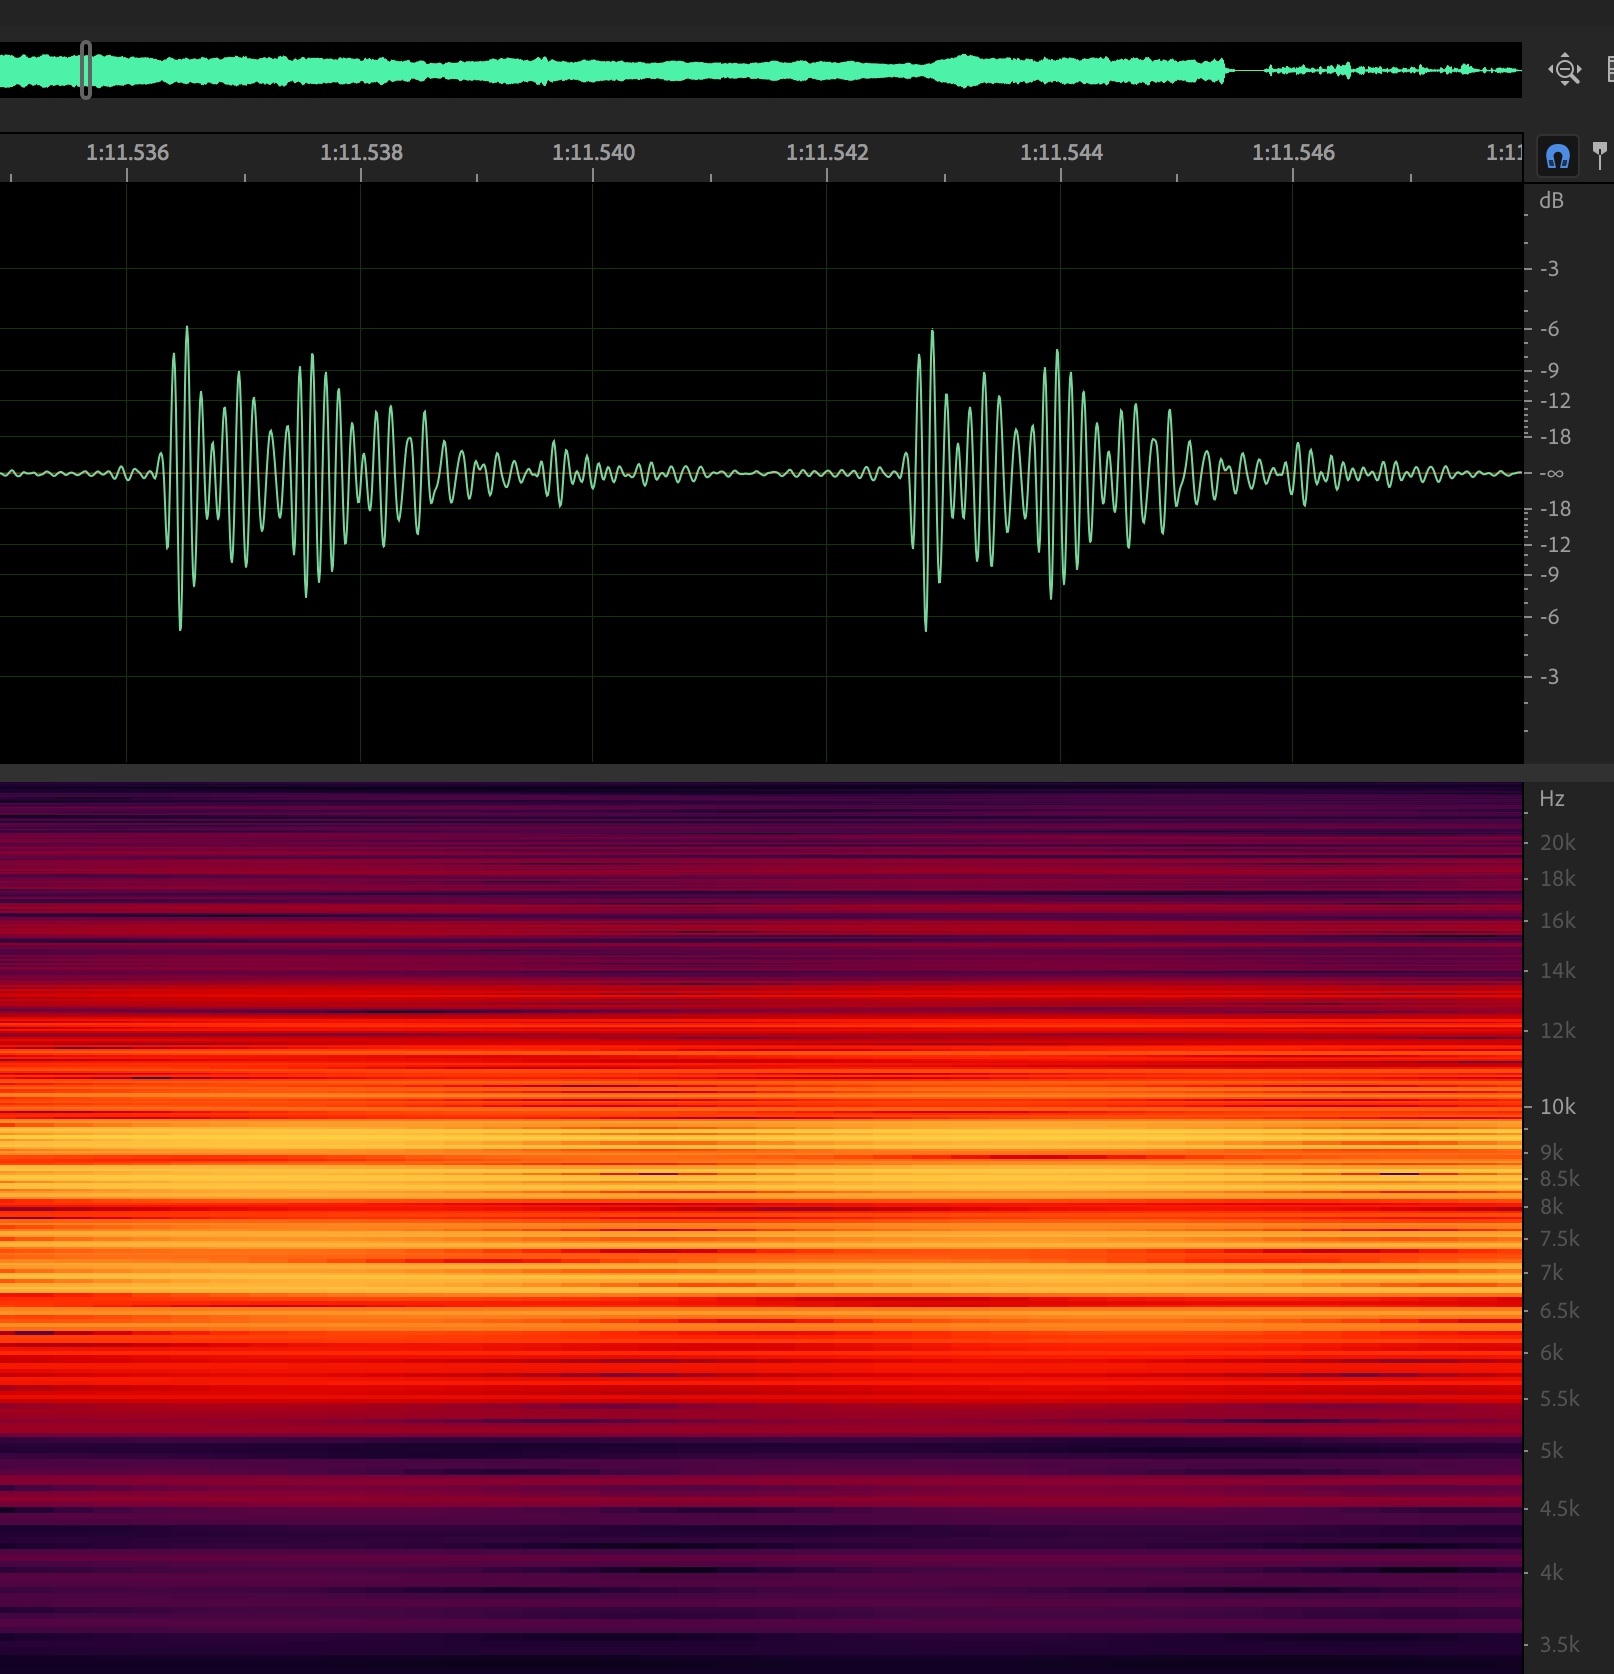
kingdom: Animalia
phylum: Arthropoda
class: Insecta
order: Hemiptera
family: Cicadidae
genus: Diceroprocta
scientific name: Diceroprocta eugraphica
